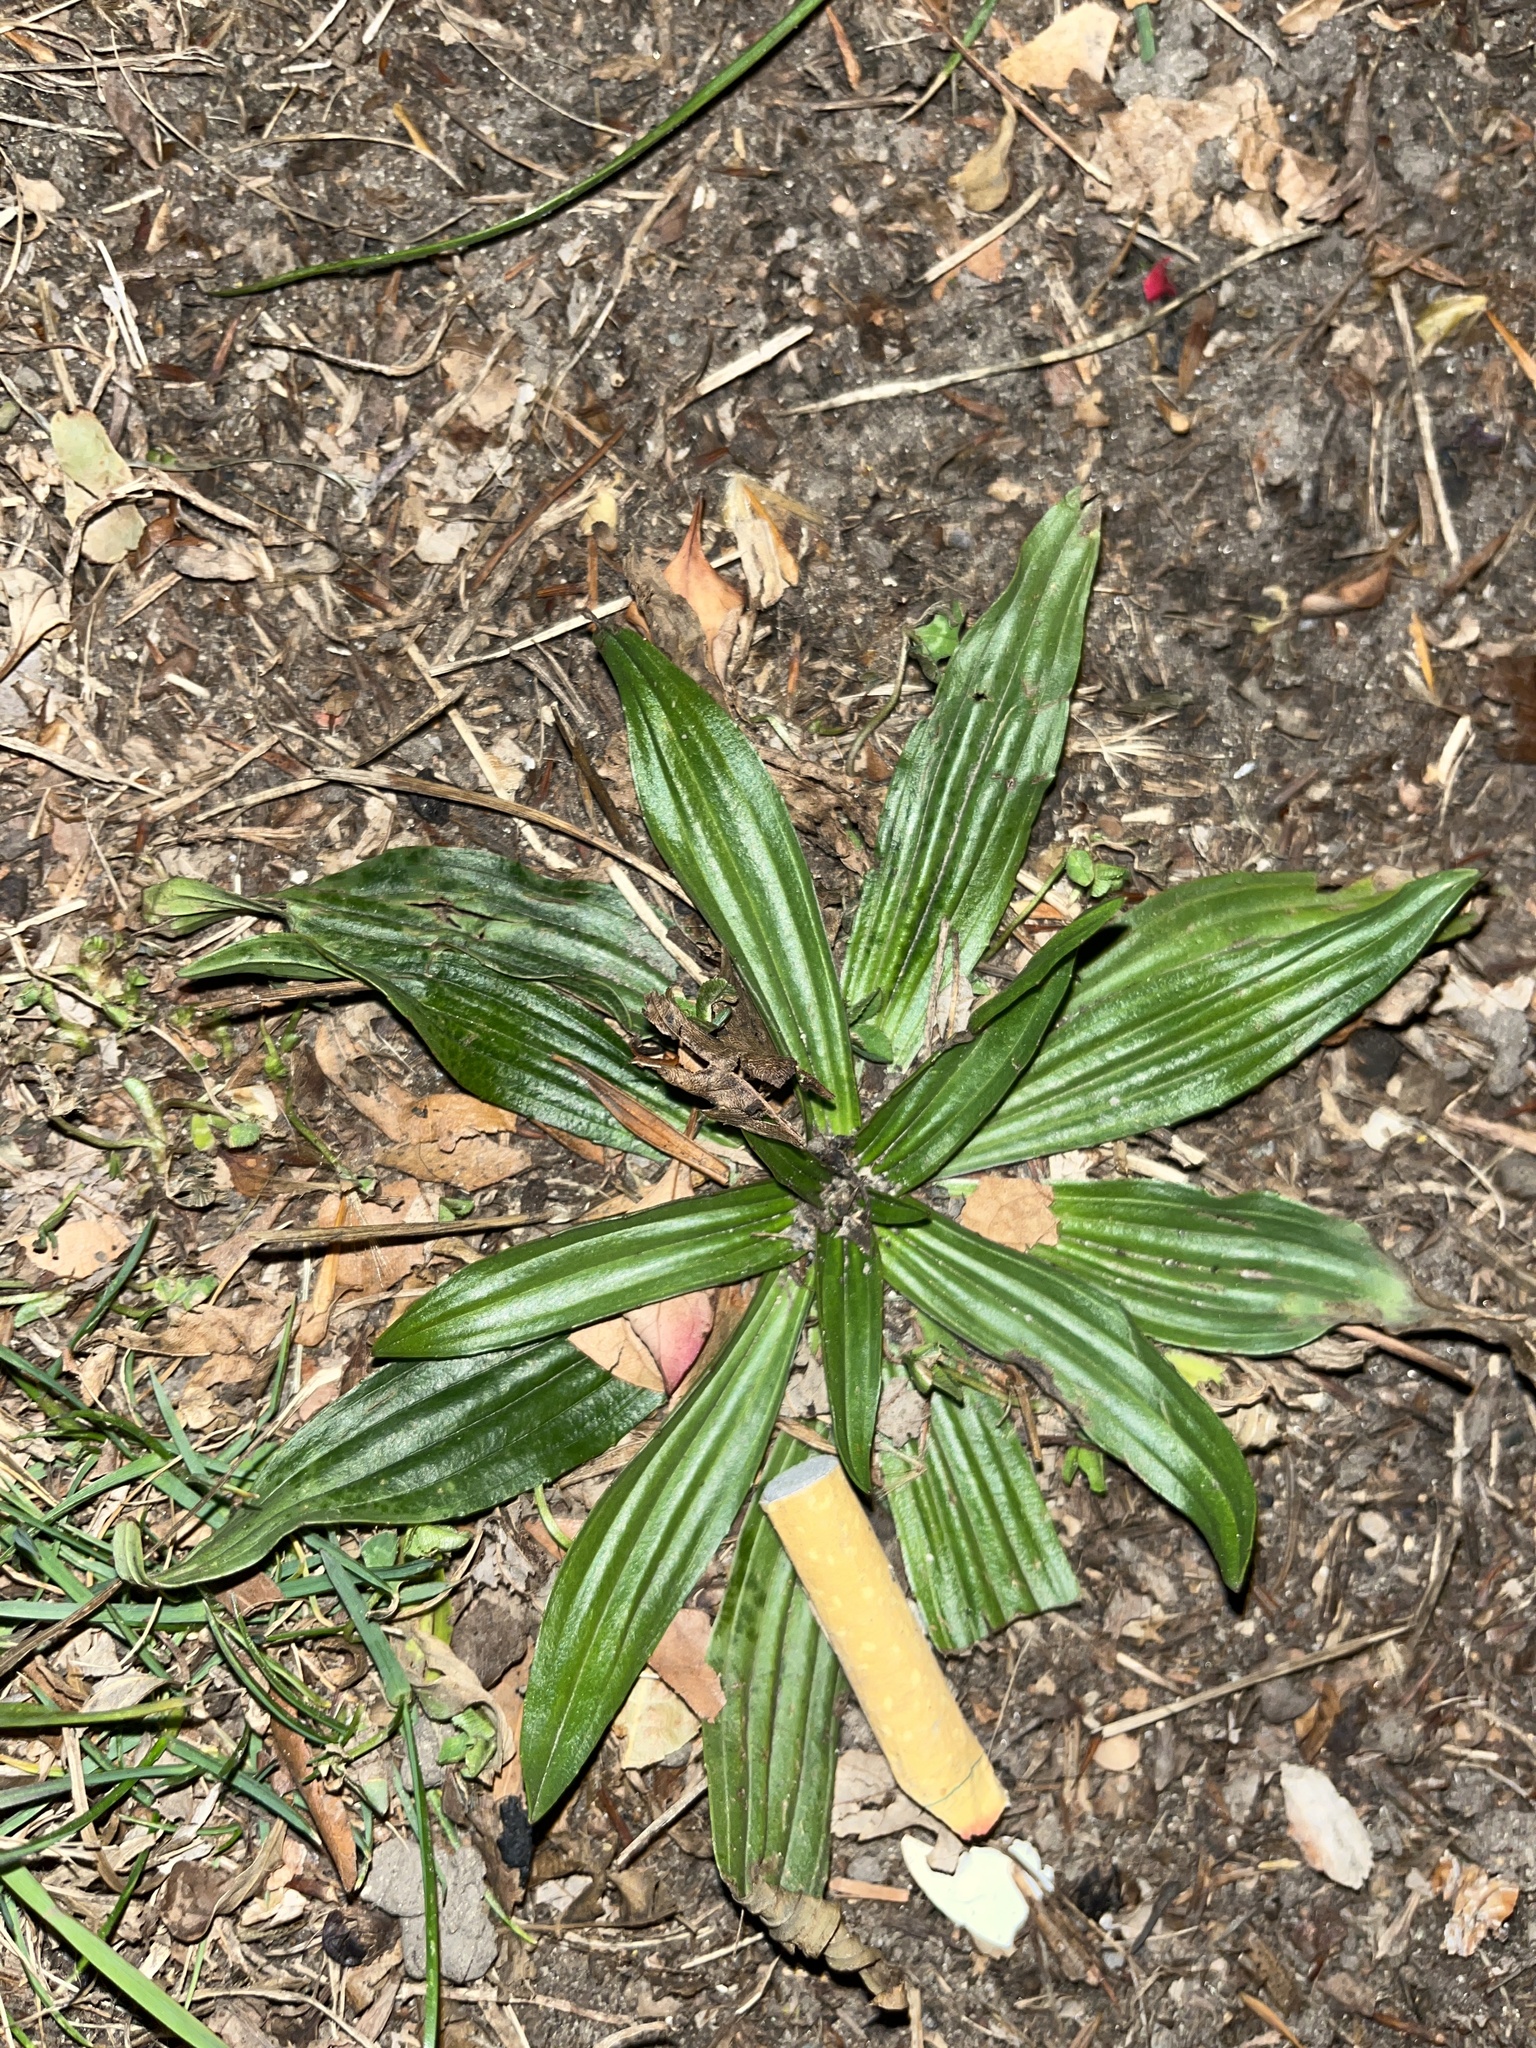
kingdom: Plantae
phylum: Tracheophyta
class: Magnoliopsida
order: Lamiales
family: Plantaginaceae
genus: Plantago
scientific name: Plantago lanceolata
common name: Ribwort plantain
